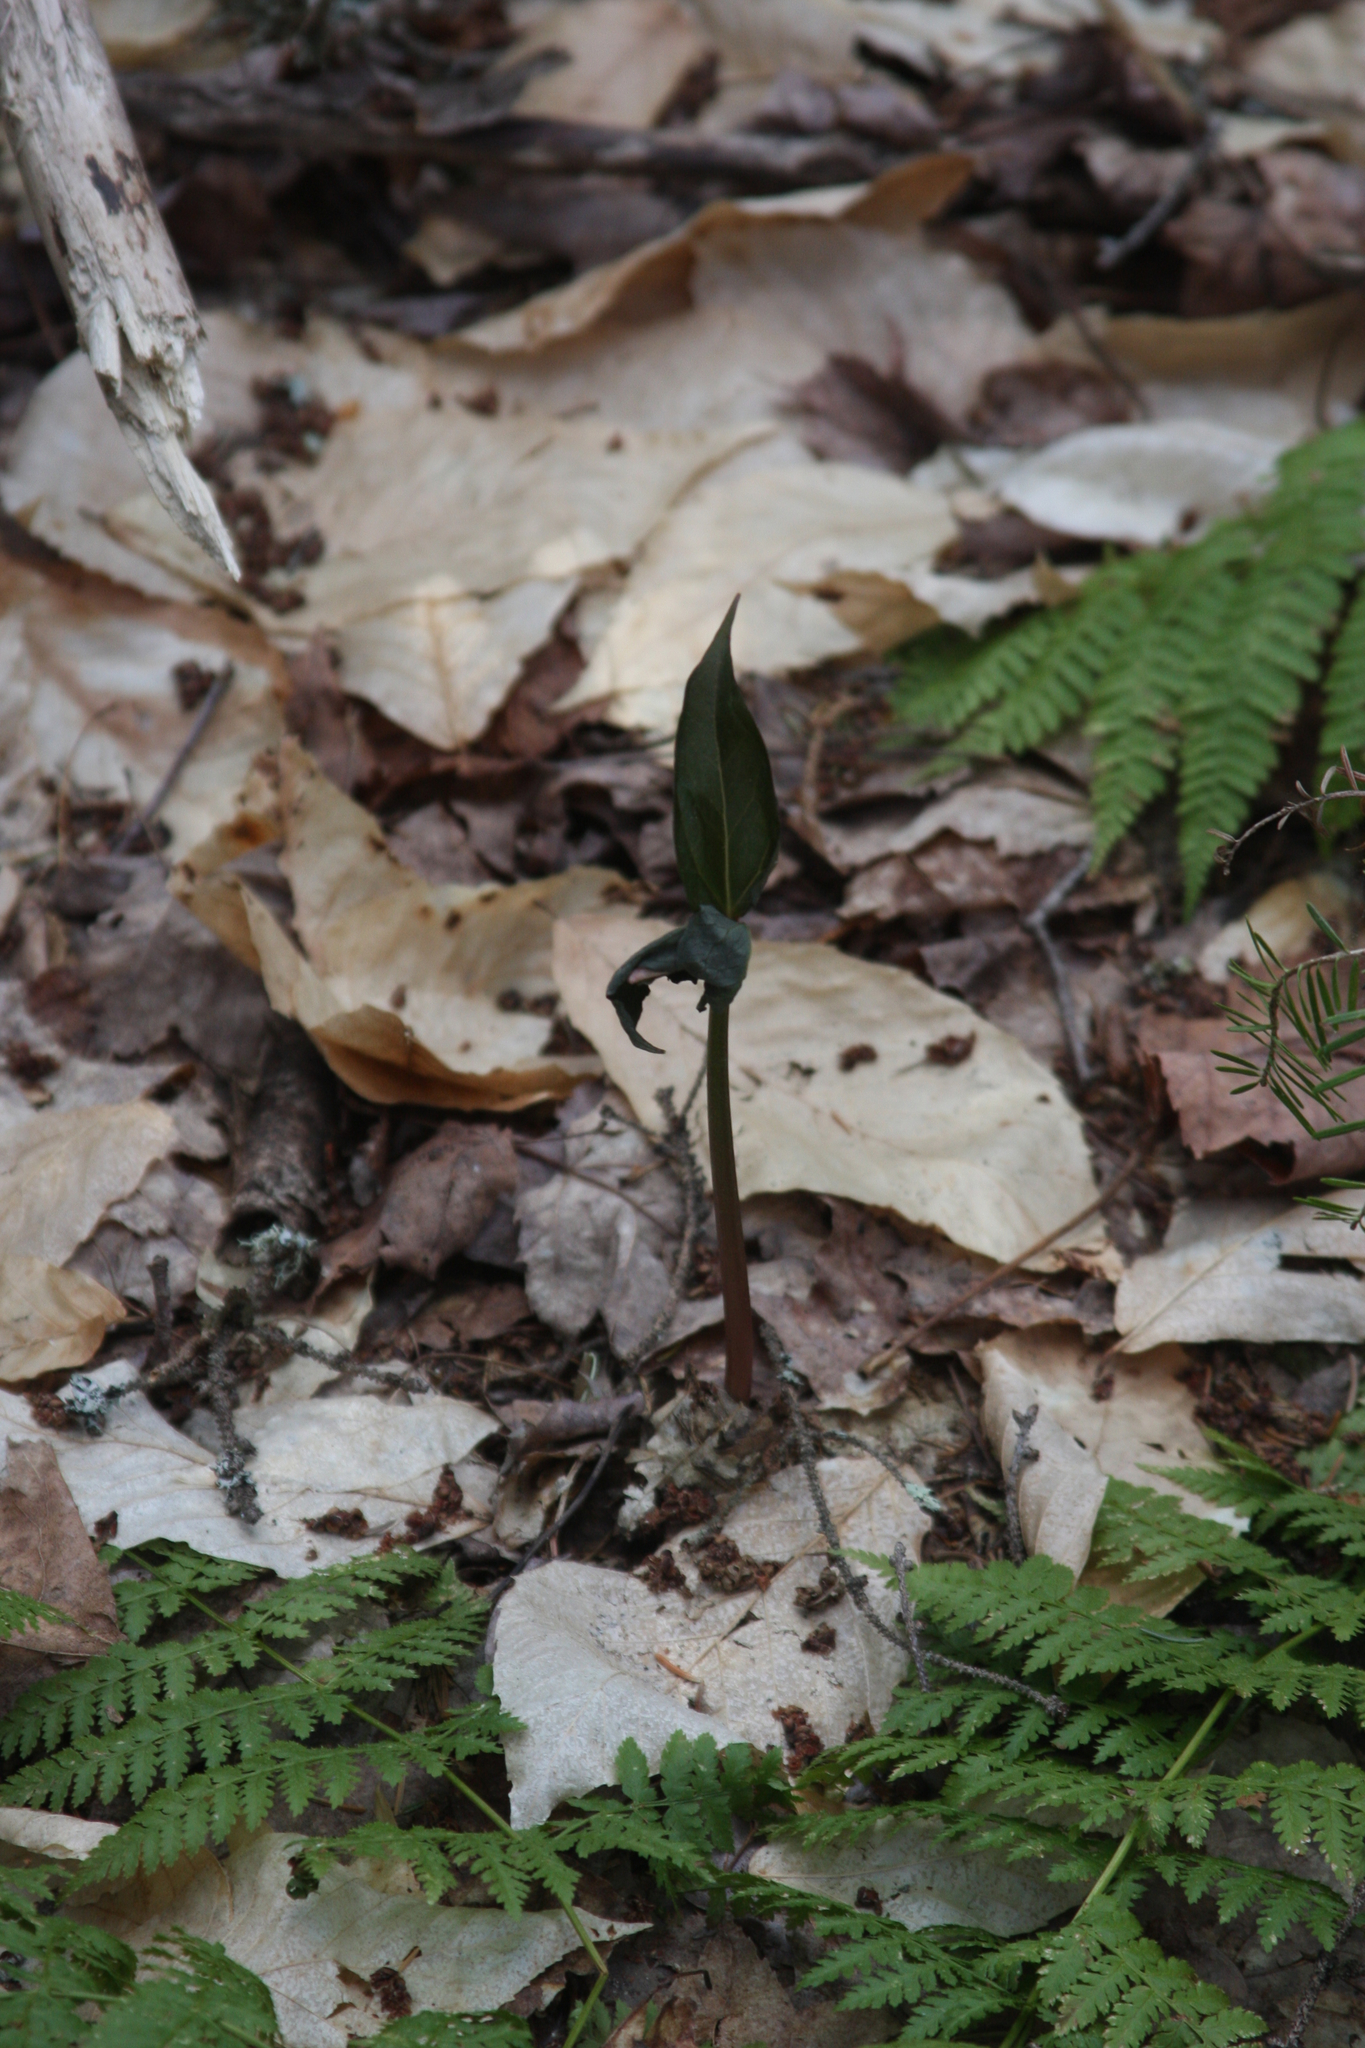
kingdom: Plantae
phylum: Tracheophyta
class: Liliopsida
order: Liliales
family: Melanthiaceae
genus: Trillium
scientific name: Trillium undulatum
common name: Paint trillium
